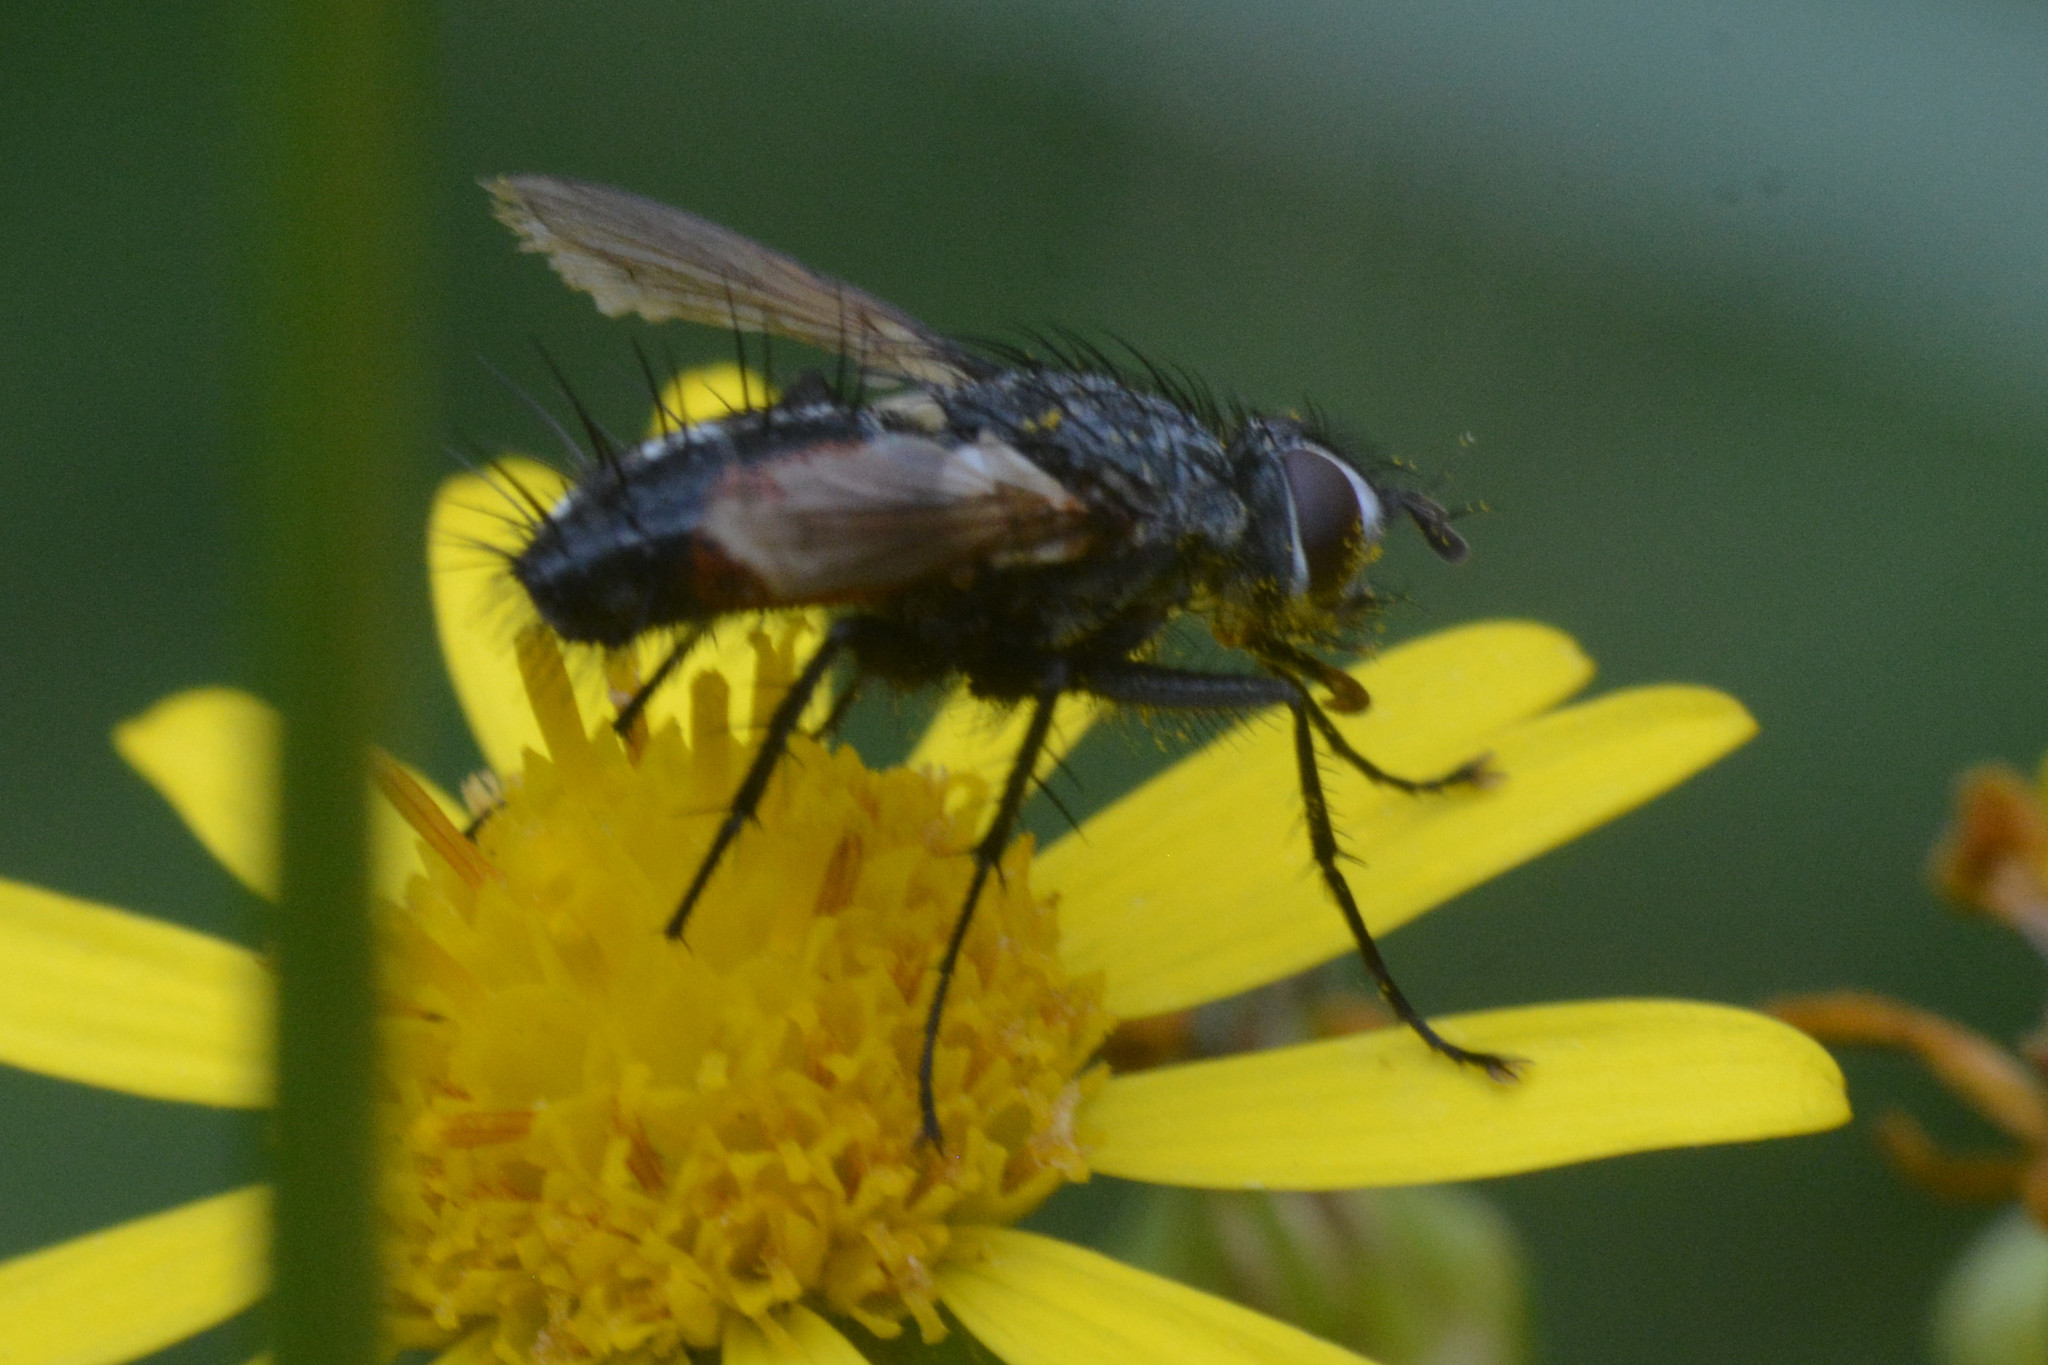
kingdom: Animalia
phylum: Arthropoda
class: Insecta
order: Diptera
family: Tachinidae
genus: Eriothrix
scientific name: Eriothrix rufomaculatus
